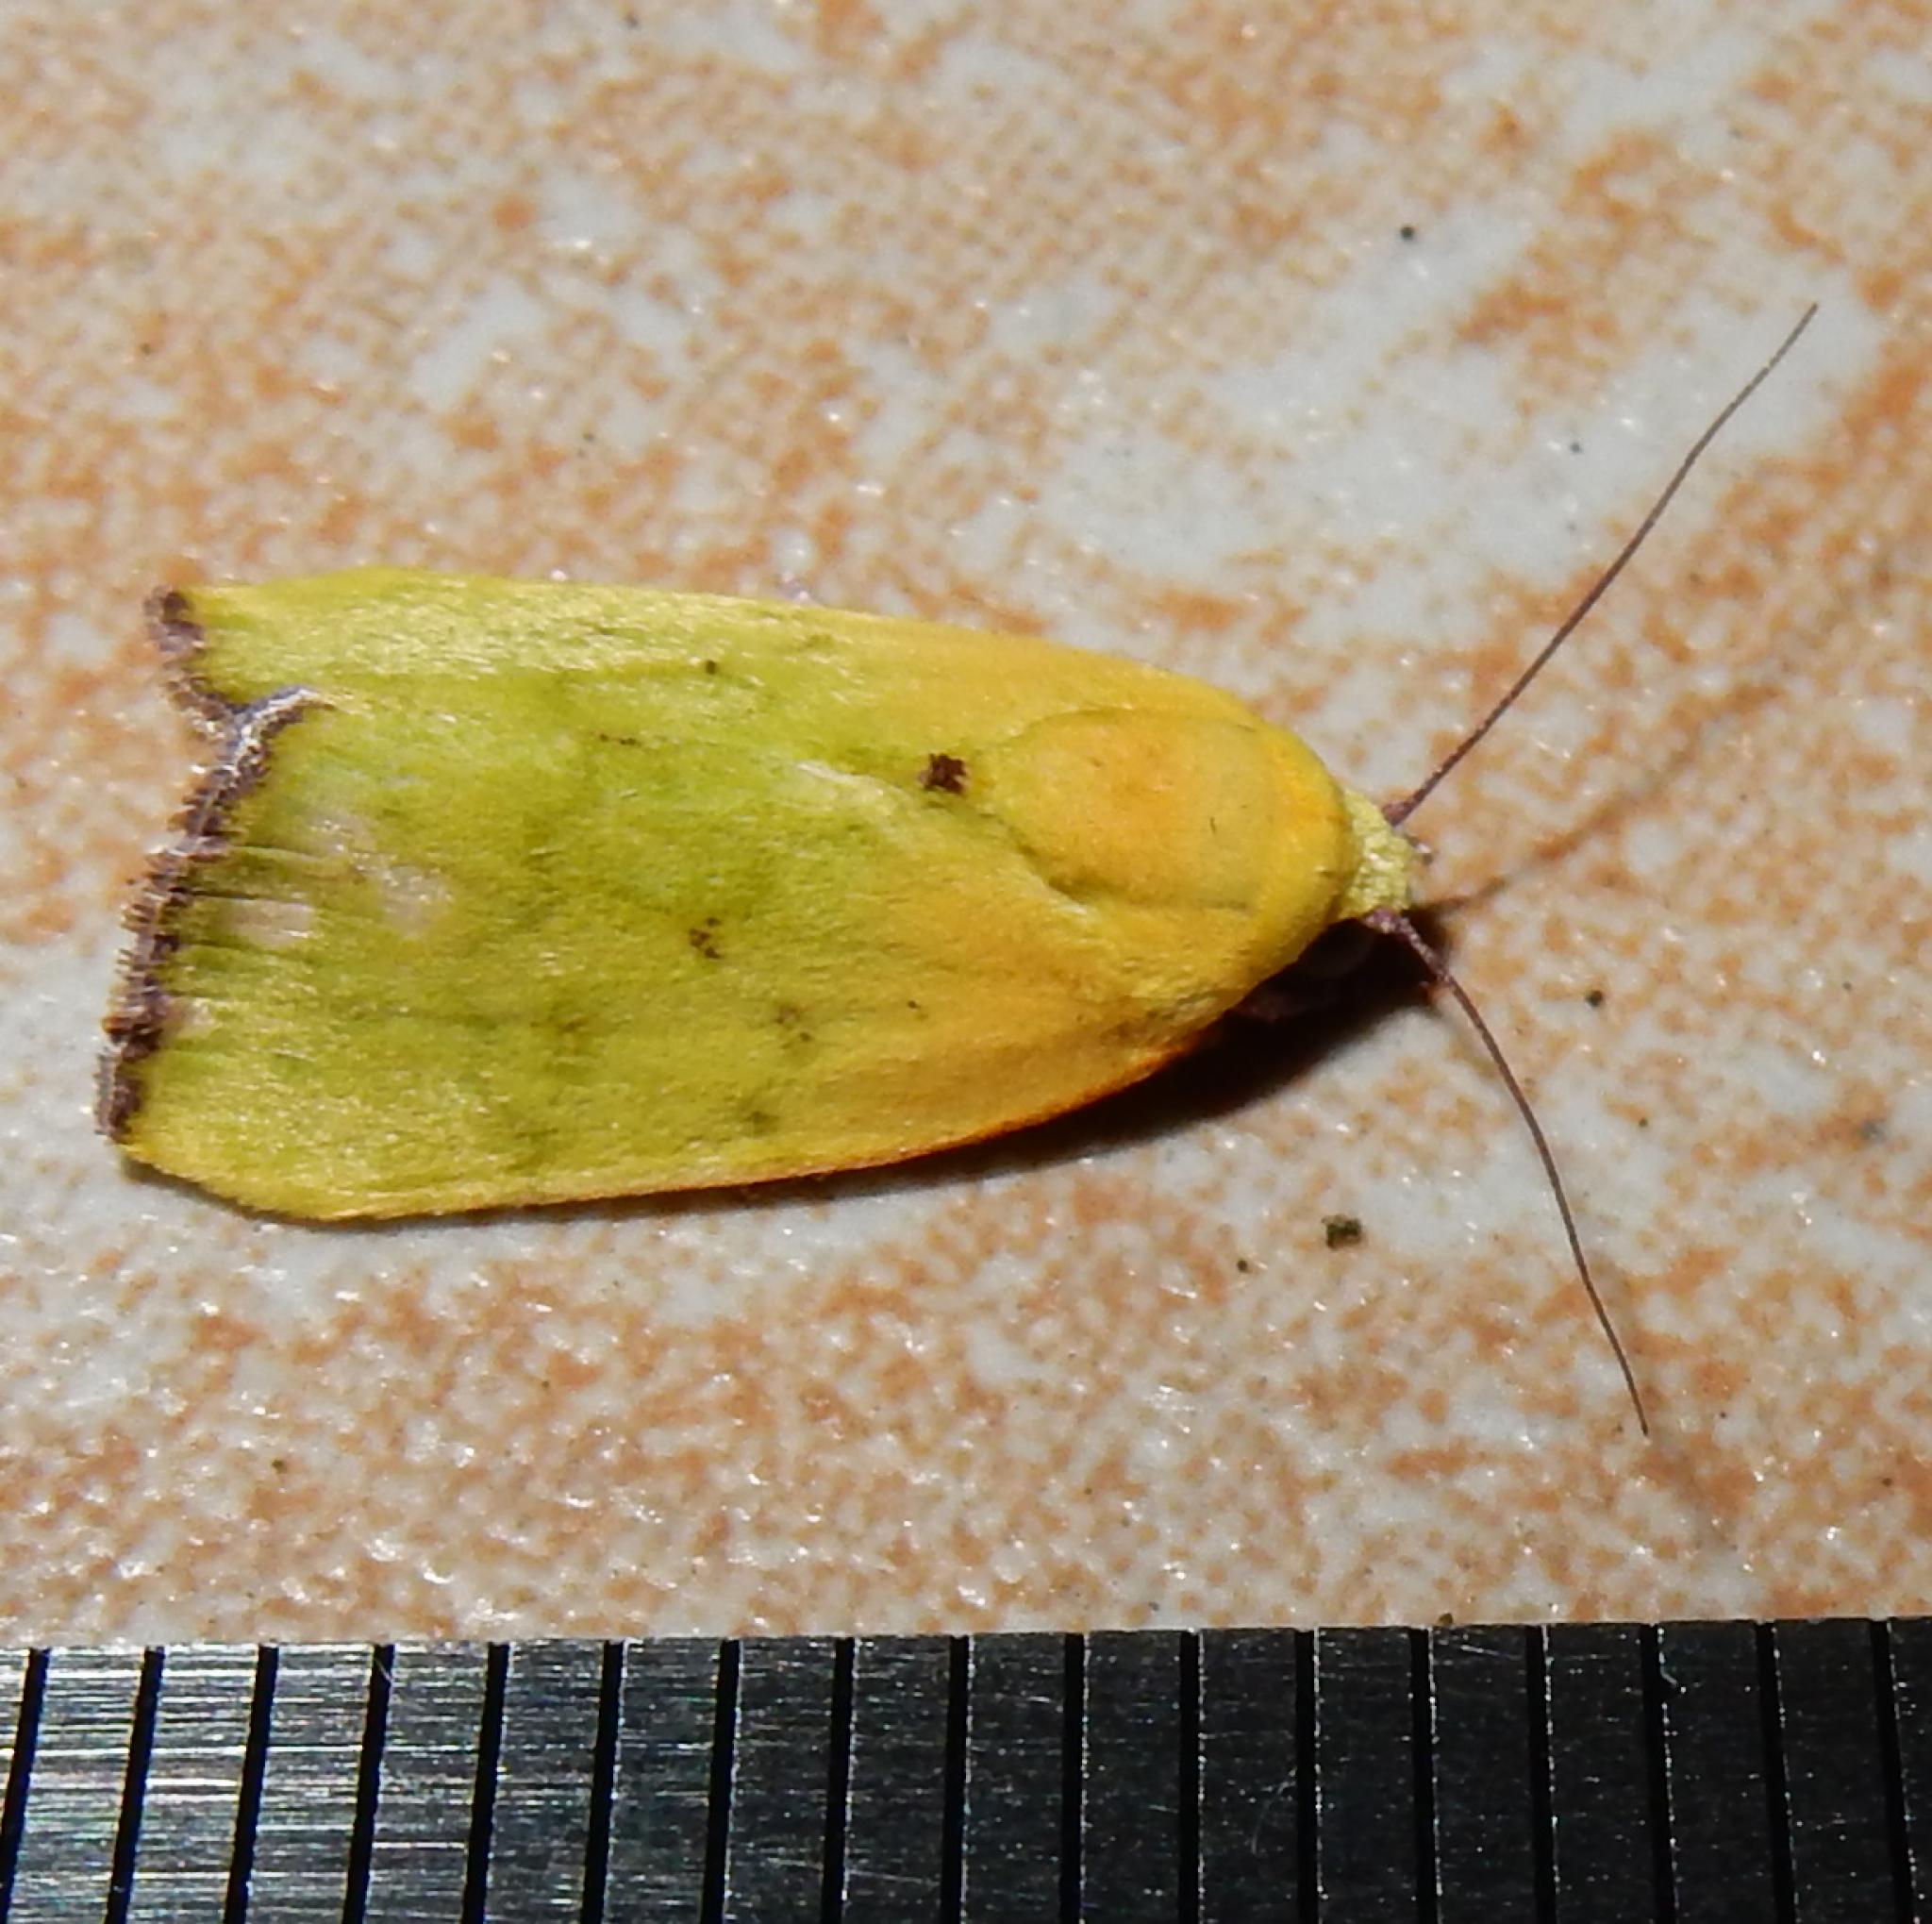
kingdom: Animalia
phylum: Arthropoda
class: Insecta
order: Lepidoptera
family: Nolidae
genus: Earias
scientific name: Earias biplaga
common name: Spiny bollworm
